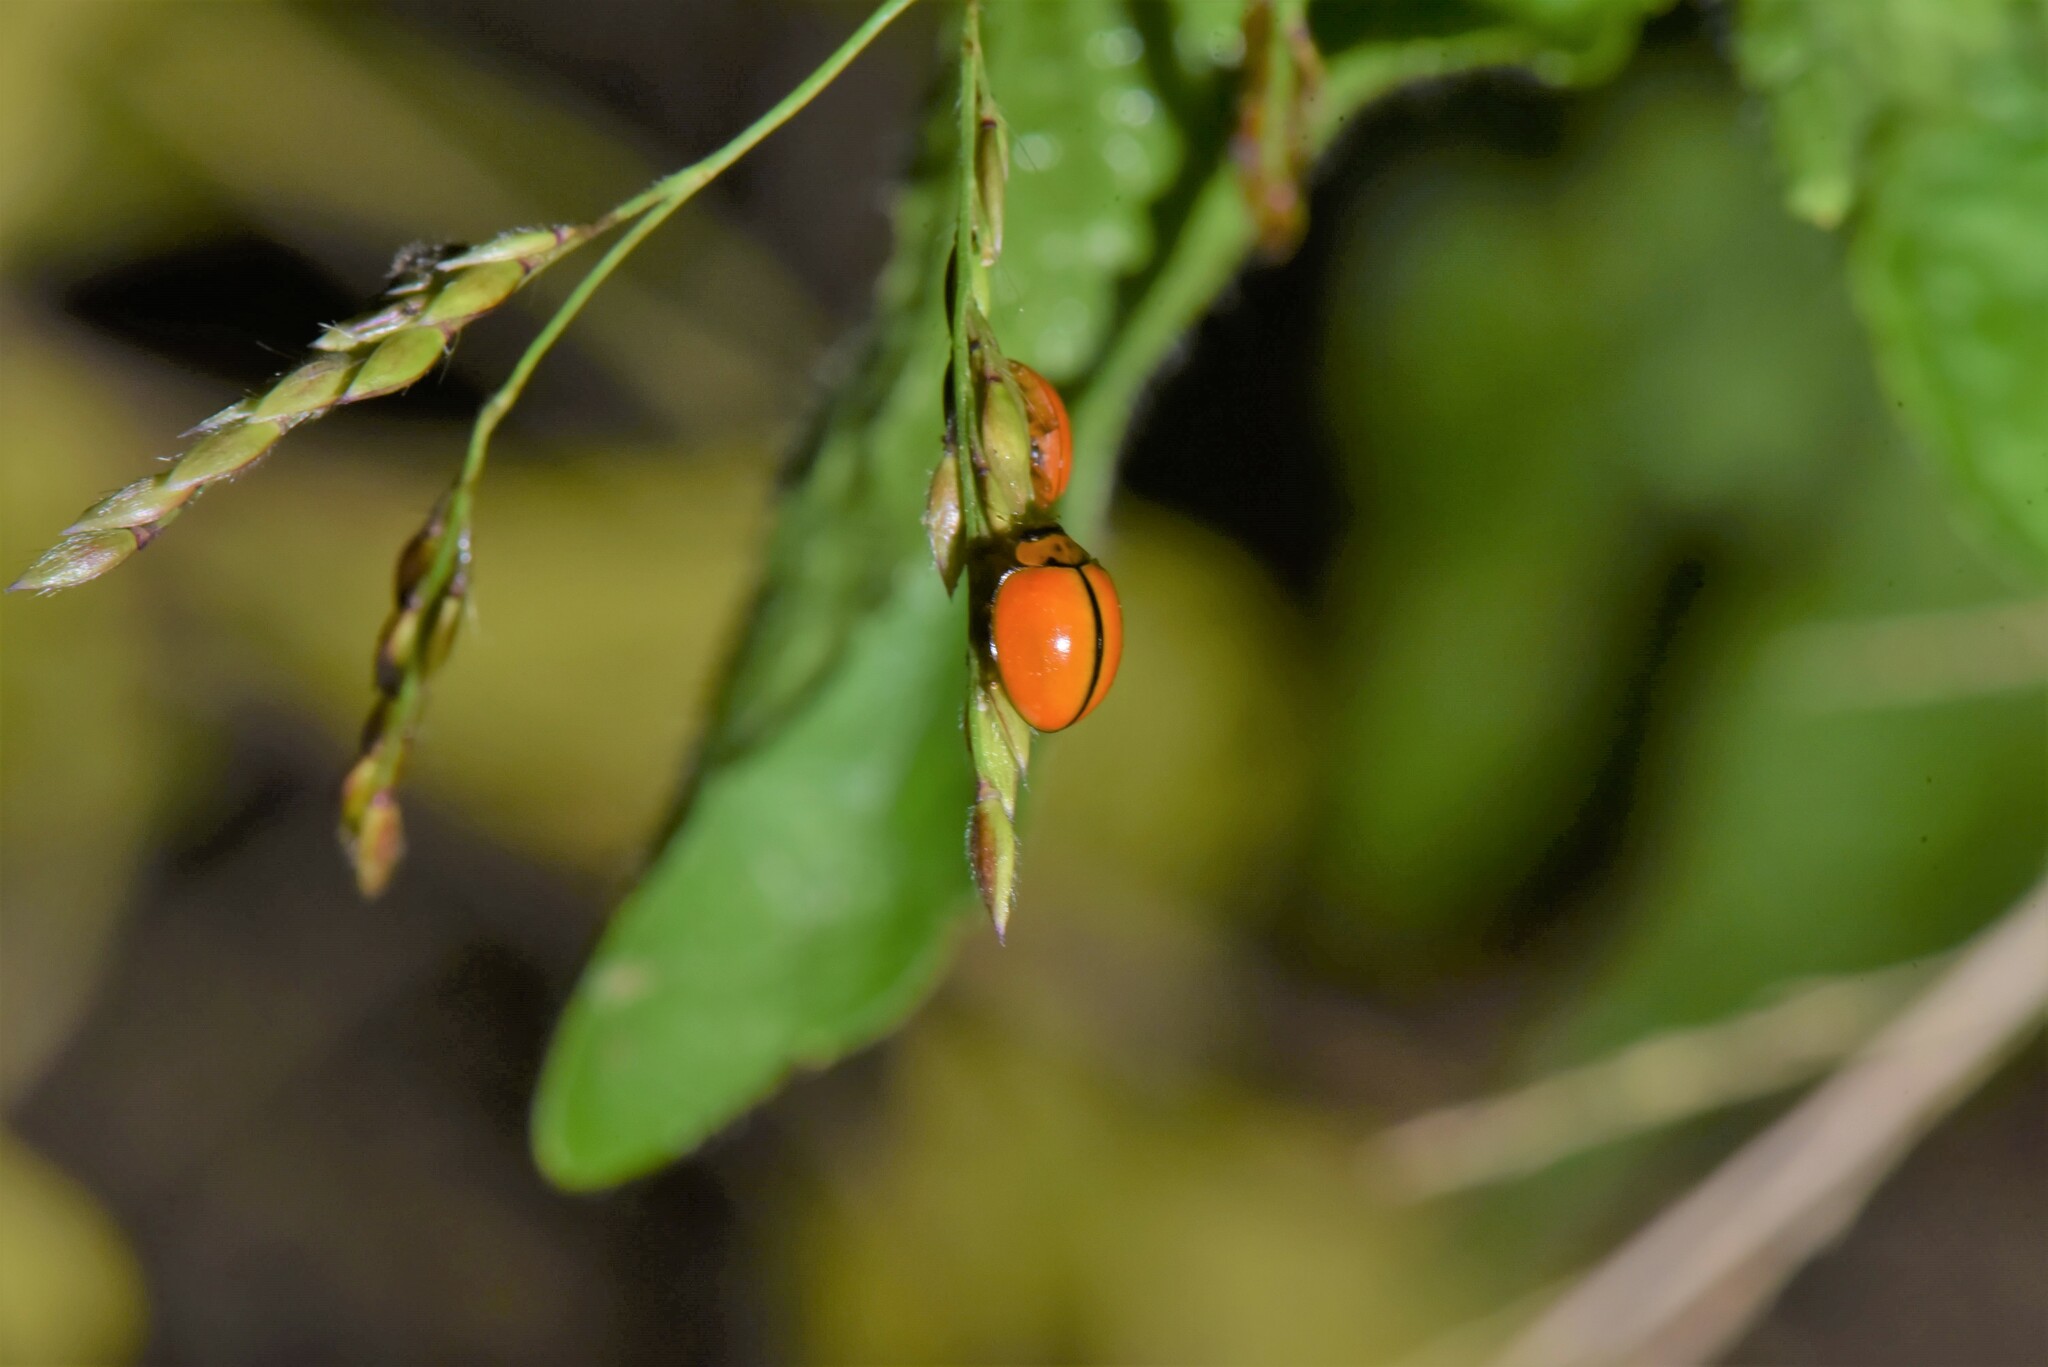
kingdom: Animalia
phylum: Arthropoda
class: Insecta
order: Coleoptera
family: Coccinellidae
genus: Micraspis
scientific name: Micraspis discolor
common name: Lady beetle
